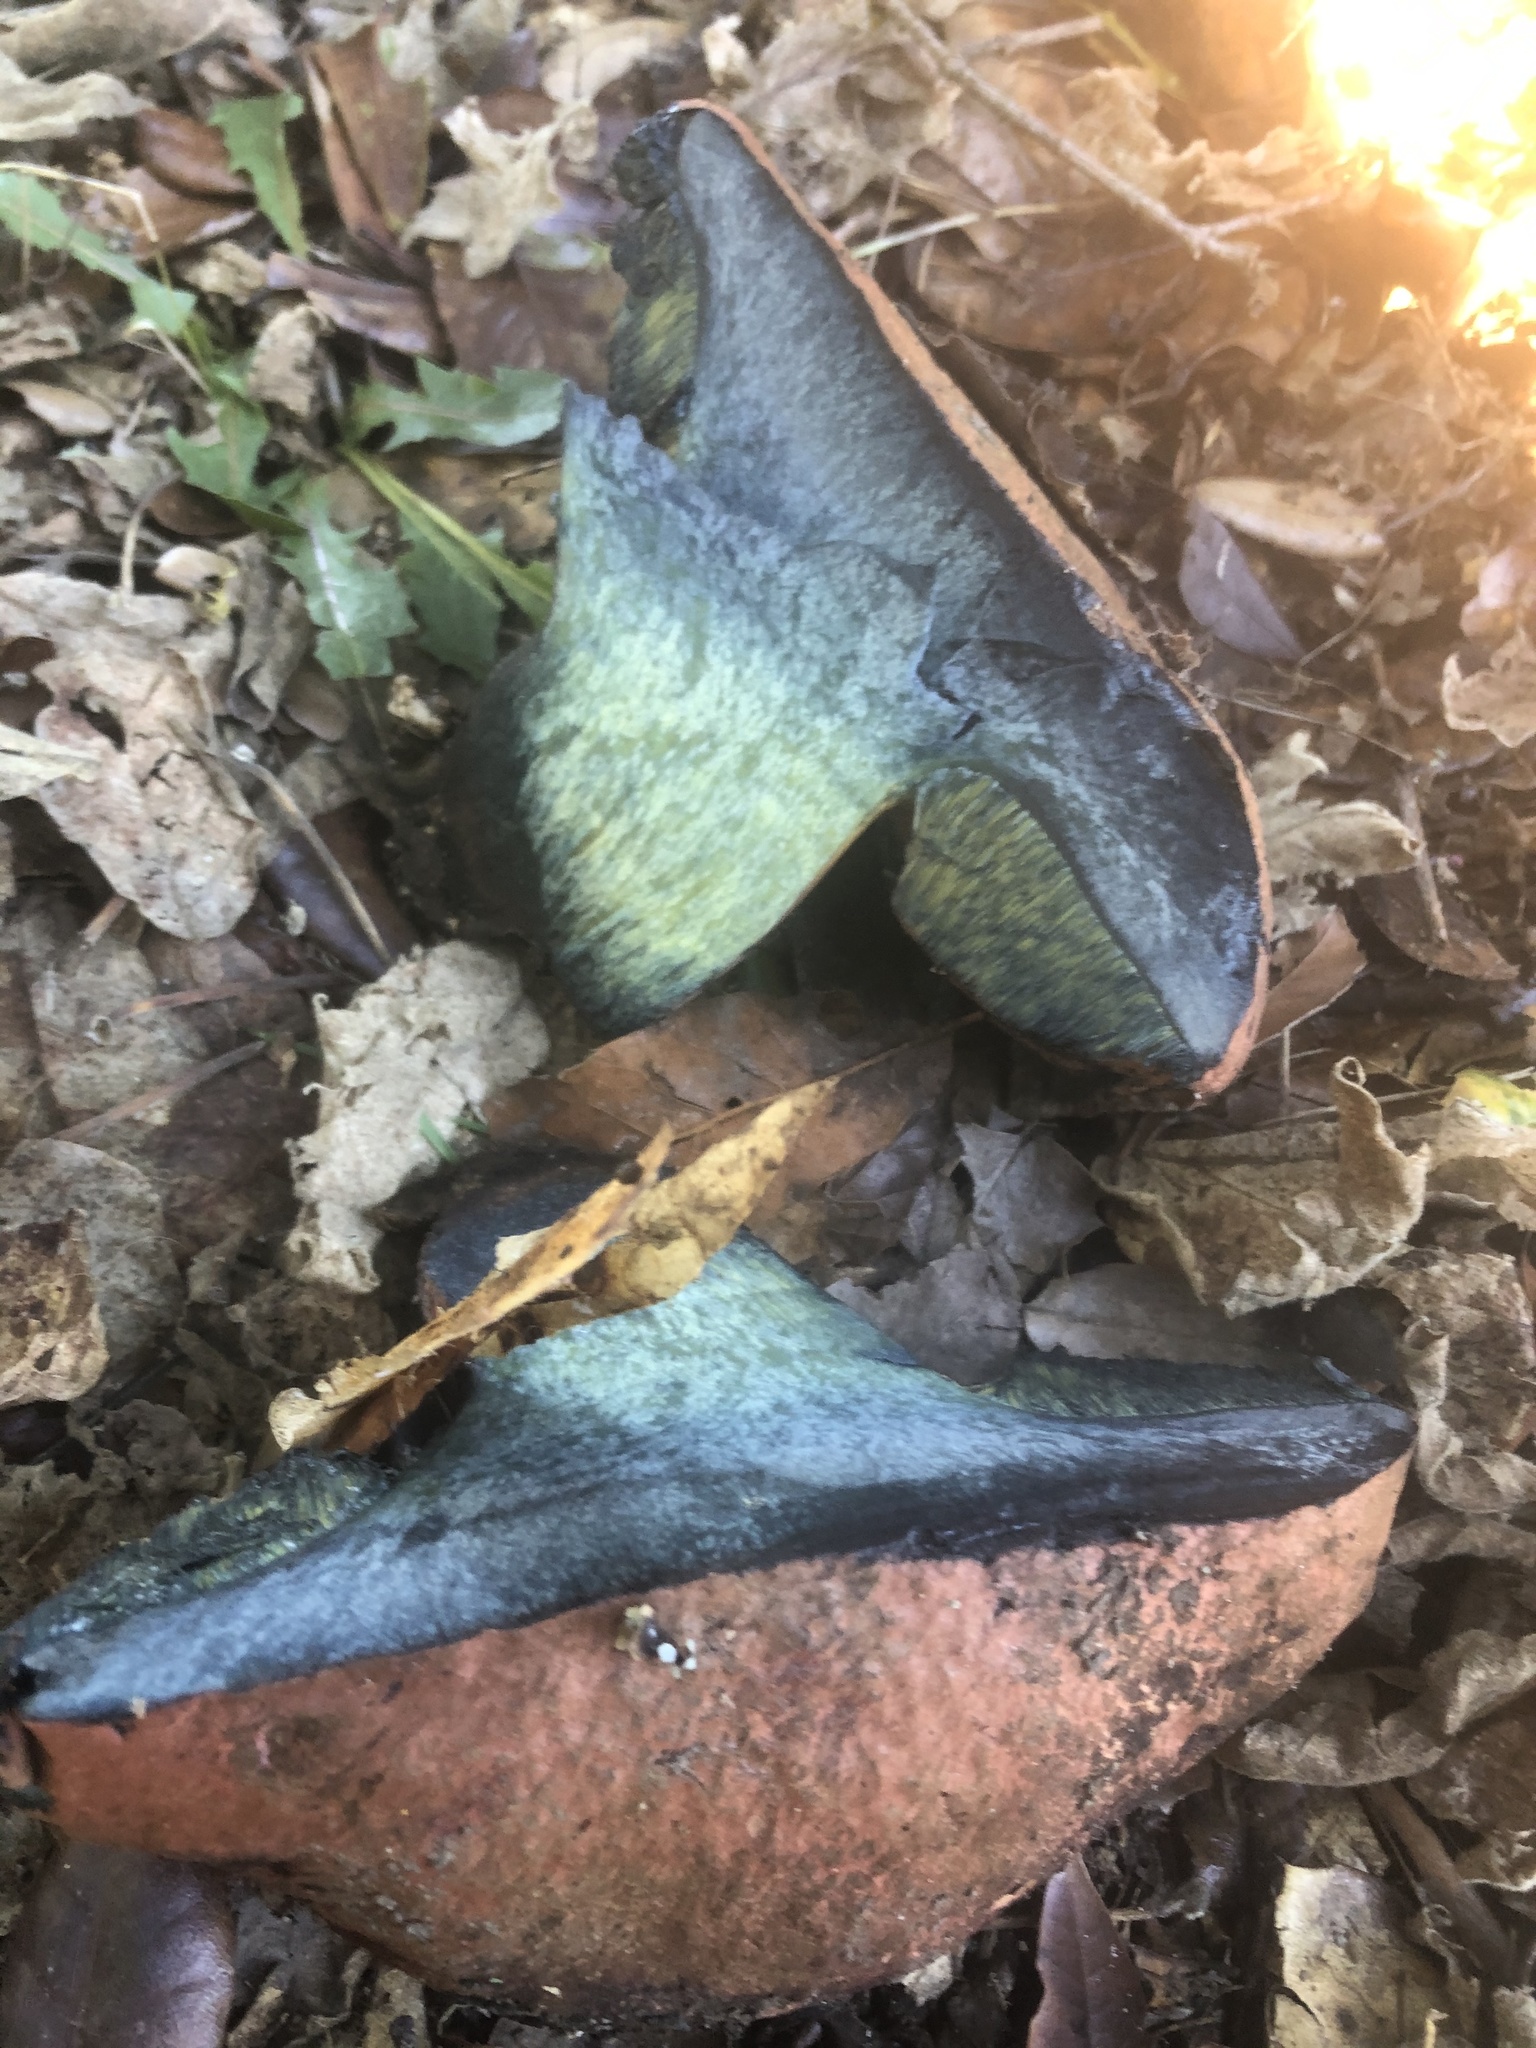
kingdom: Fungi
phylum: Basidiomycota
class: Agaricomycetes
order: Boletales
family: Boletaceae
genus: Suillellus
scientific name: Suillellus amygdalinus
